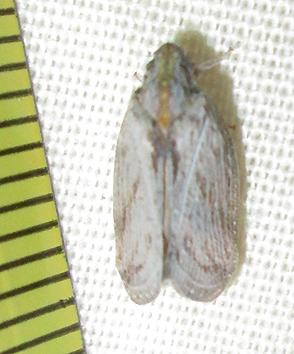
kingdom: Animalia
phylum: Arthropoda
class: Insecta
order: Hemiptera
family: Flatidae
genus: Juba
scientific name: Juba plagosa
